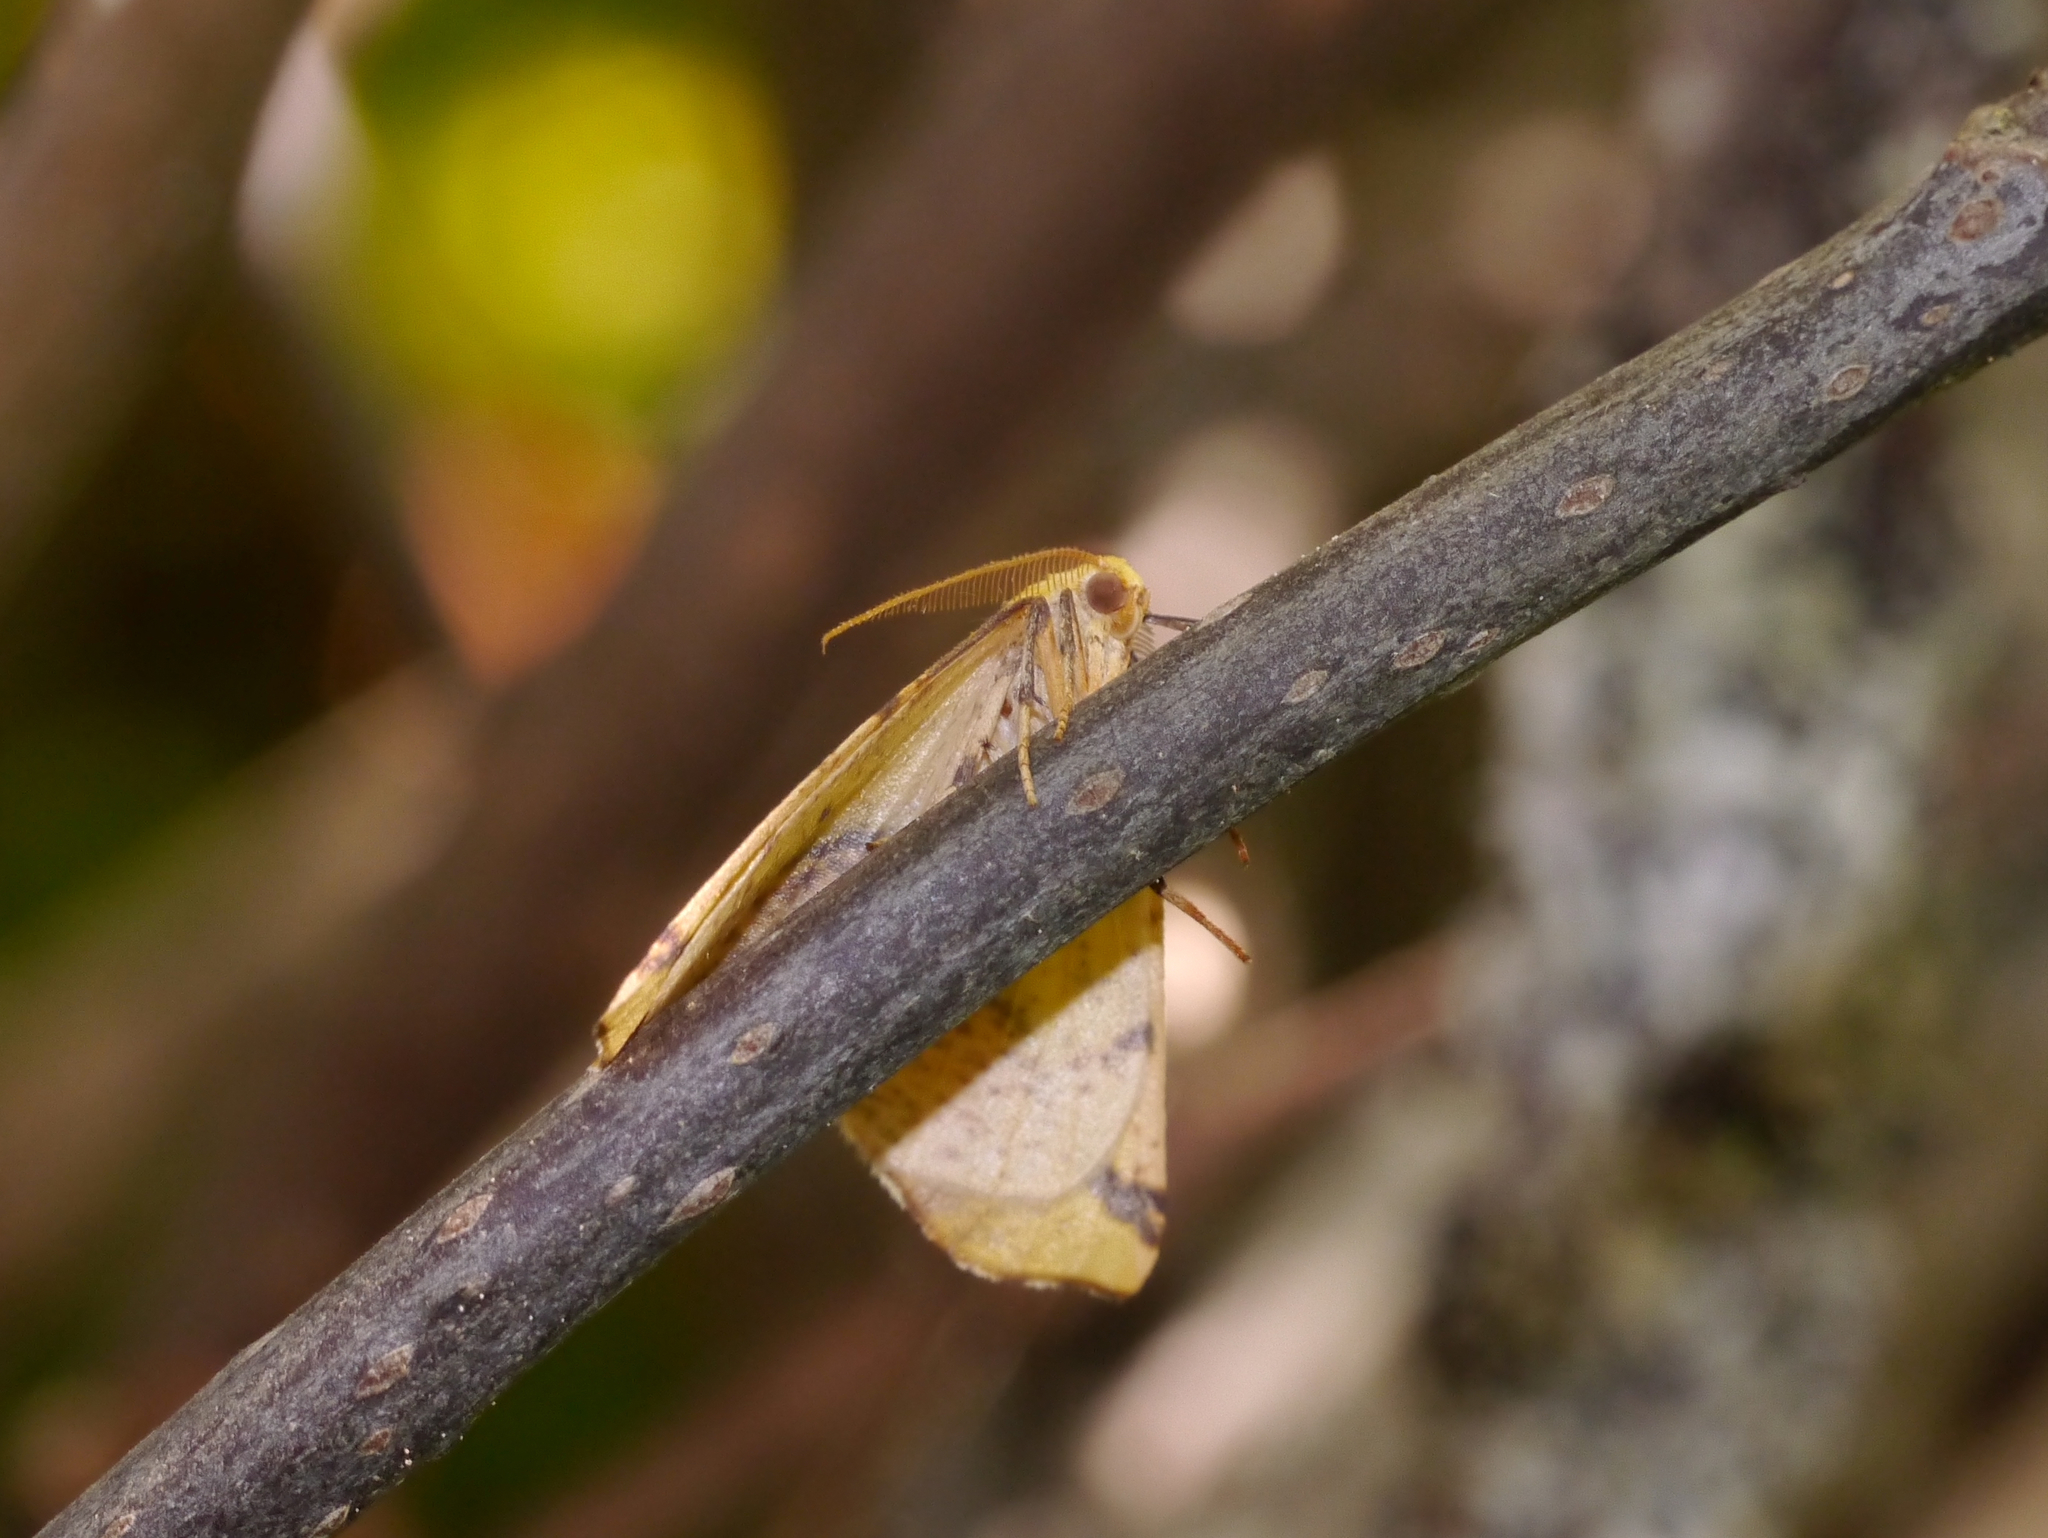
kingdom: Animalia
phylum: Arthropoda
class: Insecta
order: Lepidoptera
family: Geometridae
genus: Sicya
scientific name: Sicya macularia
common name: Sharp-lined yellow
